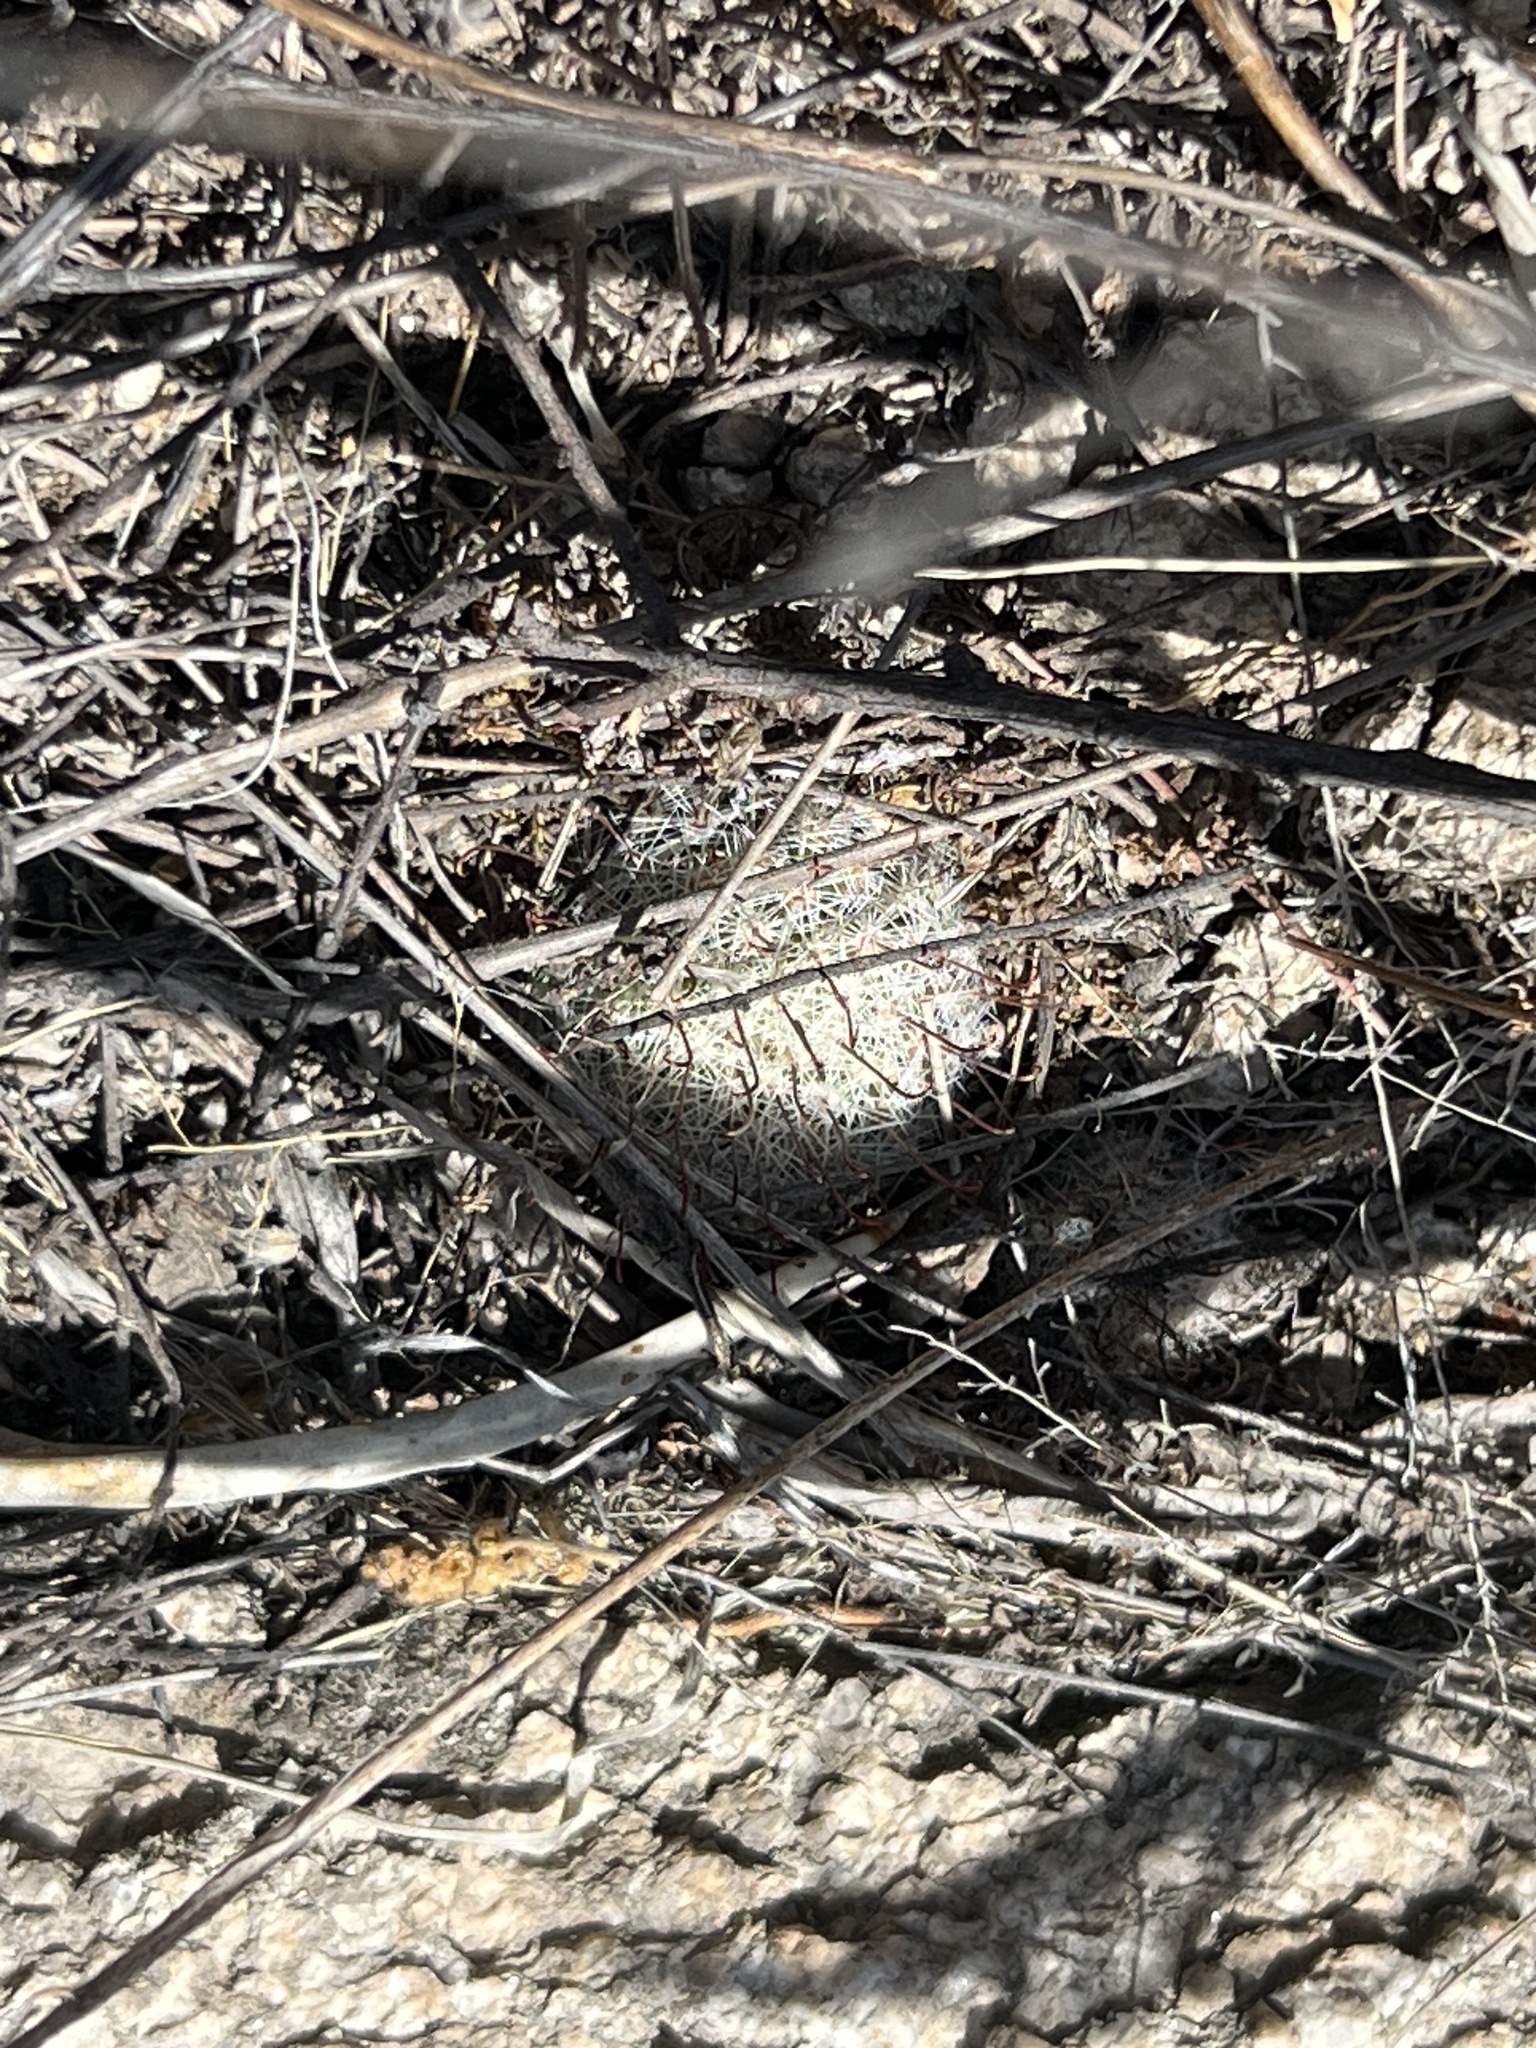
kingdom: Plantae
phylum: Tracheophyta
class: Magnoliopsida
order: Caryophyllales
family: Cactaceae
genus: Cochemiea
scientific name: Cochemiea grahamii
